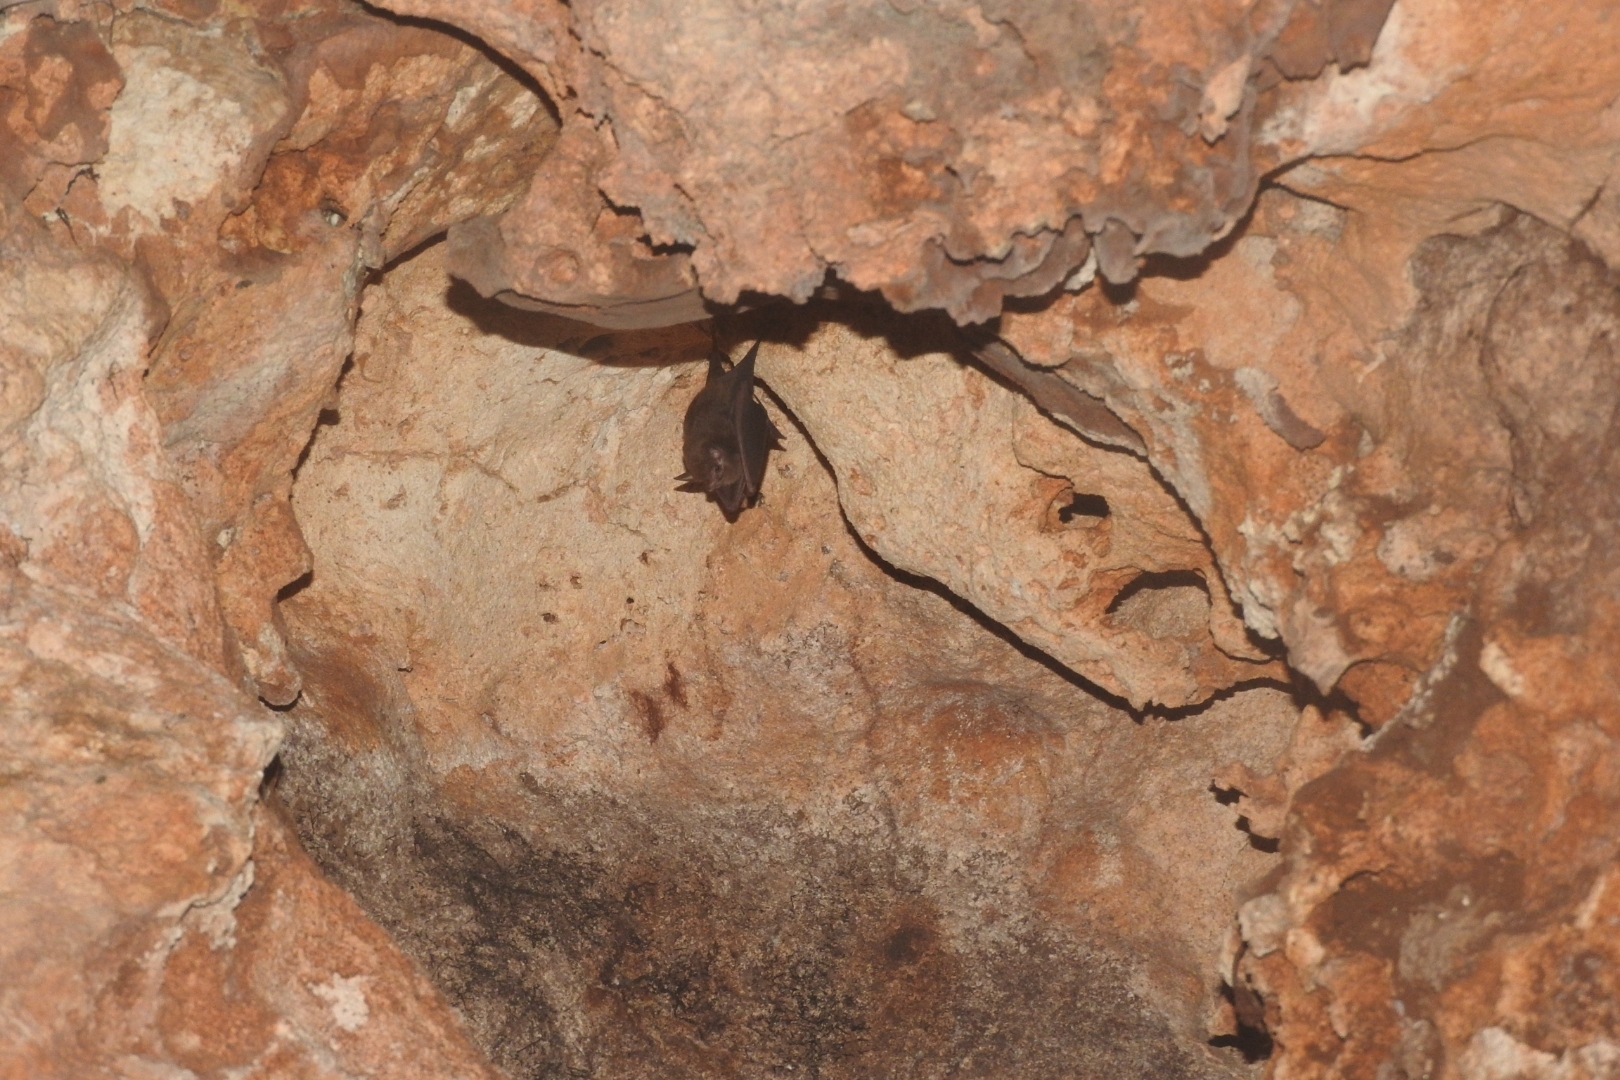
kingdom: Animalia
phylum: Chordata
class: Mammalia
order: Chiroptera
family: Emballonuridae
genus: Peropteryx
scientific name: Peropteryx macrotis
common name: Lesser dog-like bat
